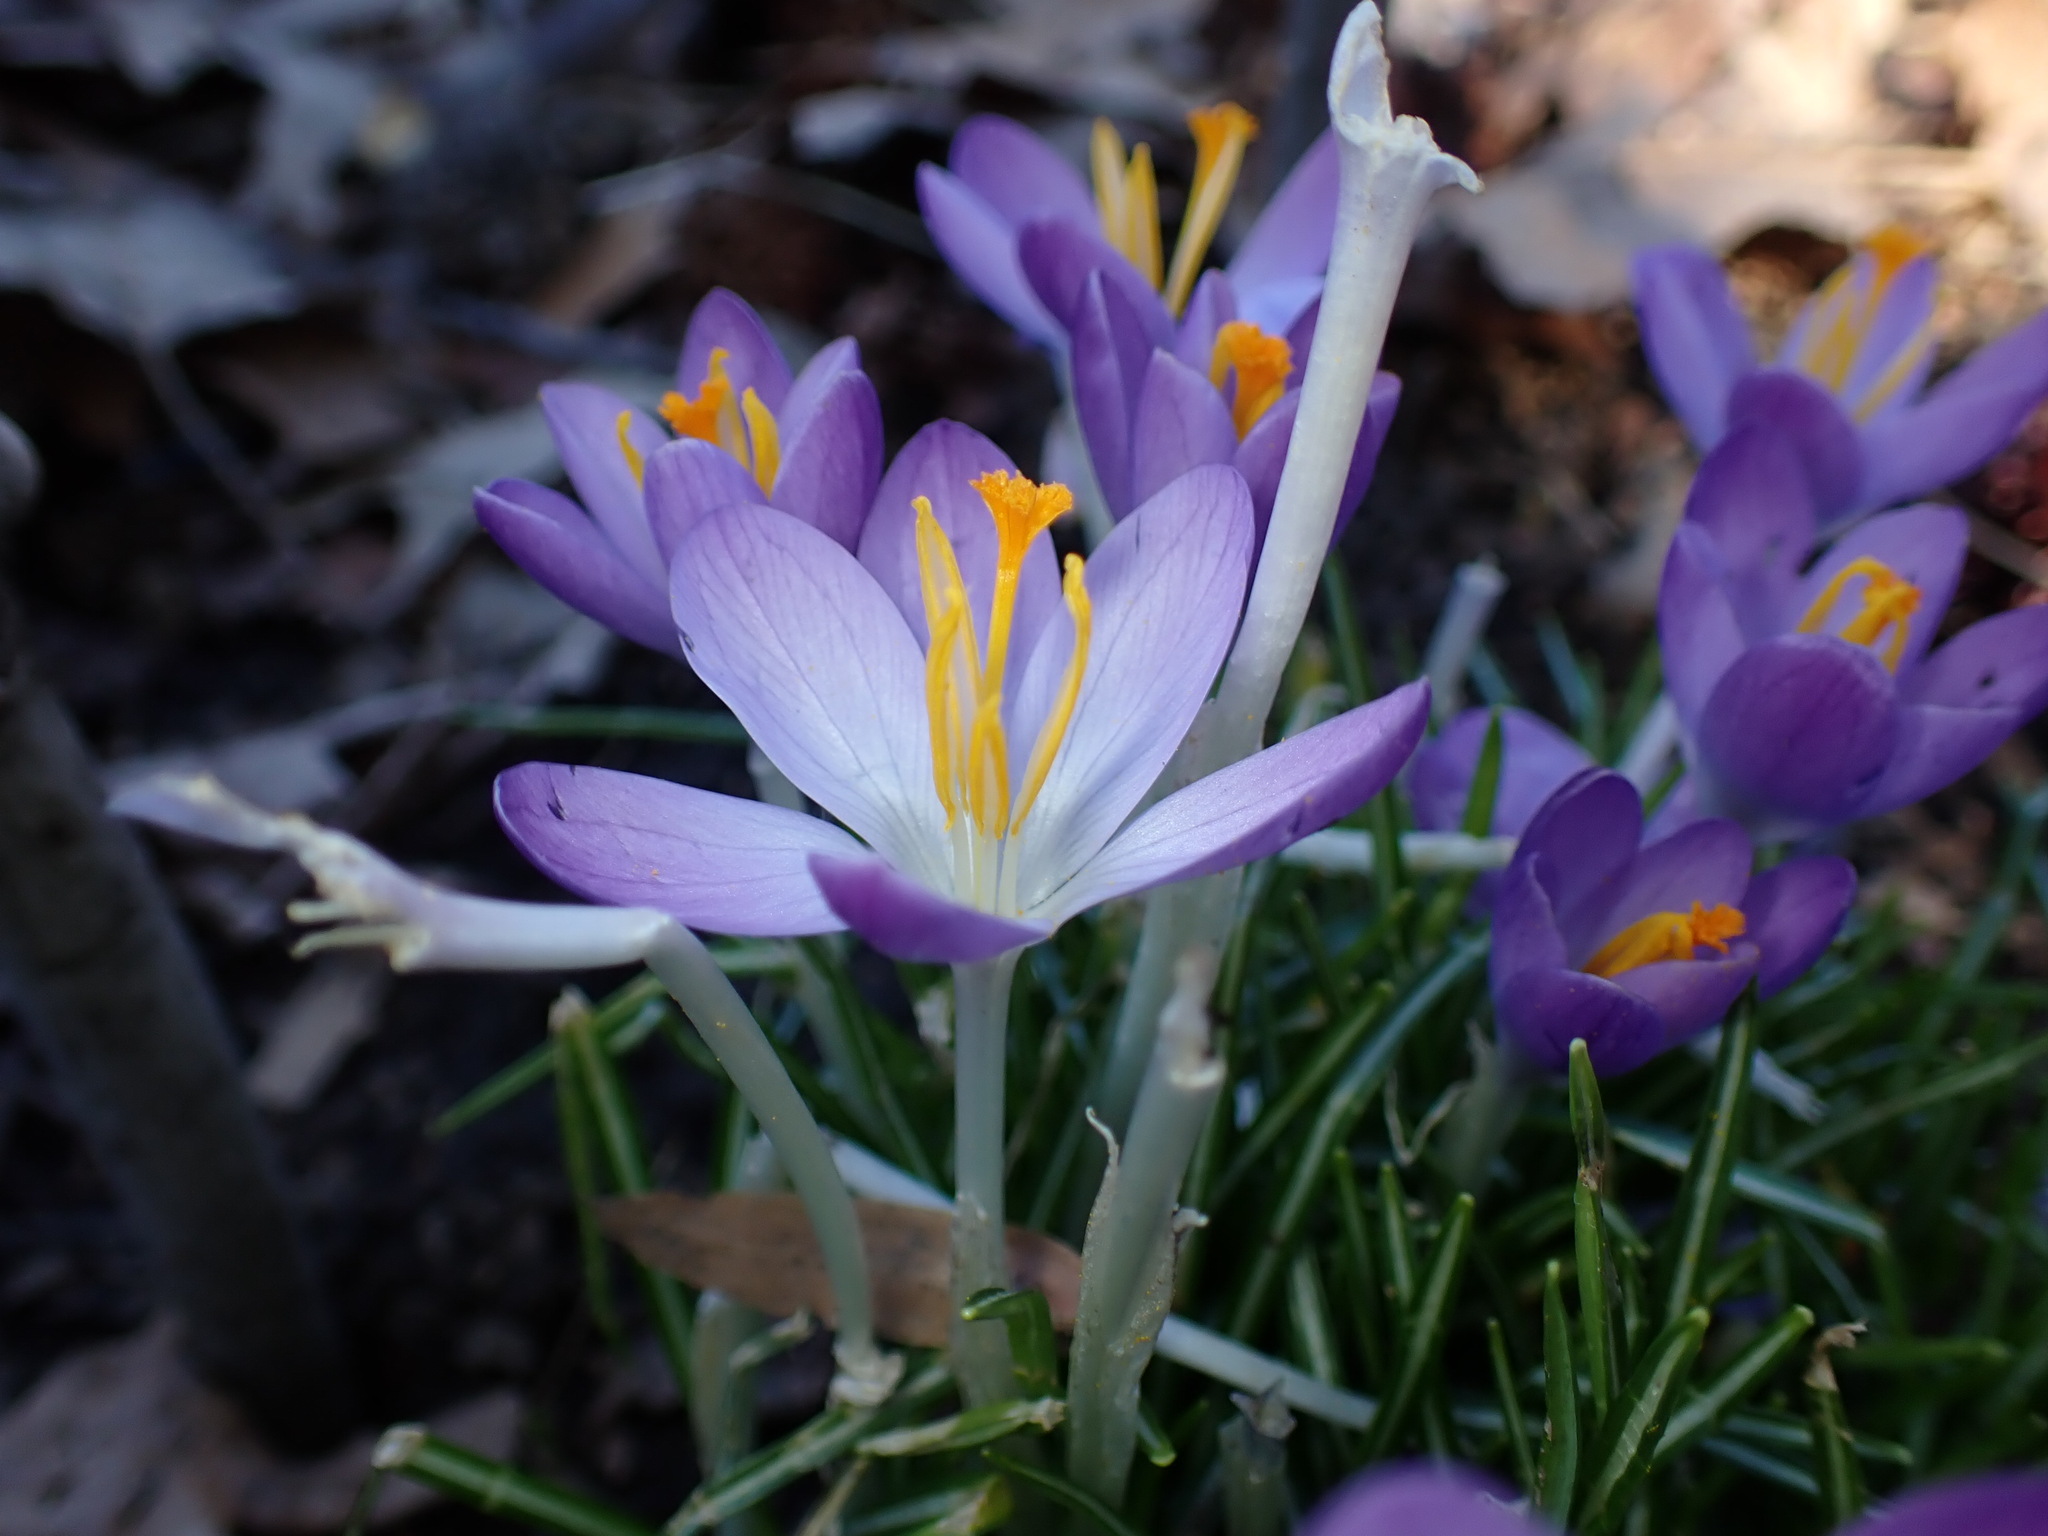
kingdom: Plantae
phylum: Tracheophyta
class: Liliopsida
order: Asparagales
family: Iridaceae
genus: Crocus
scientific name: Crocus tommasinianus
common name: Early crocus
